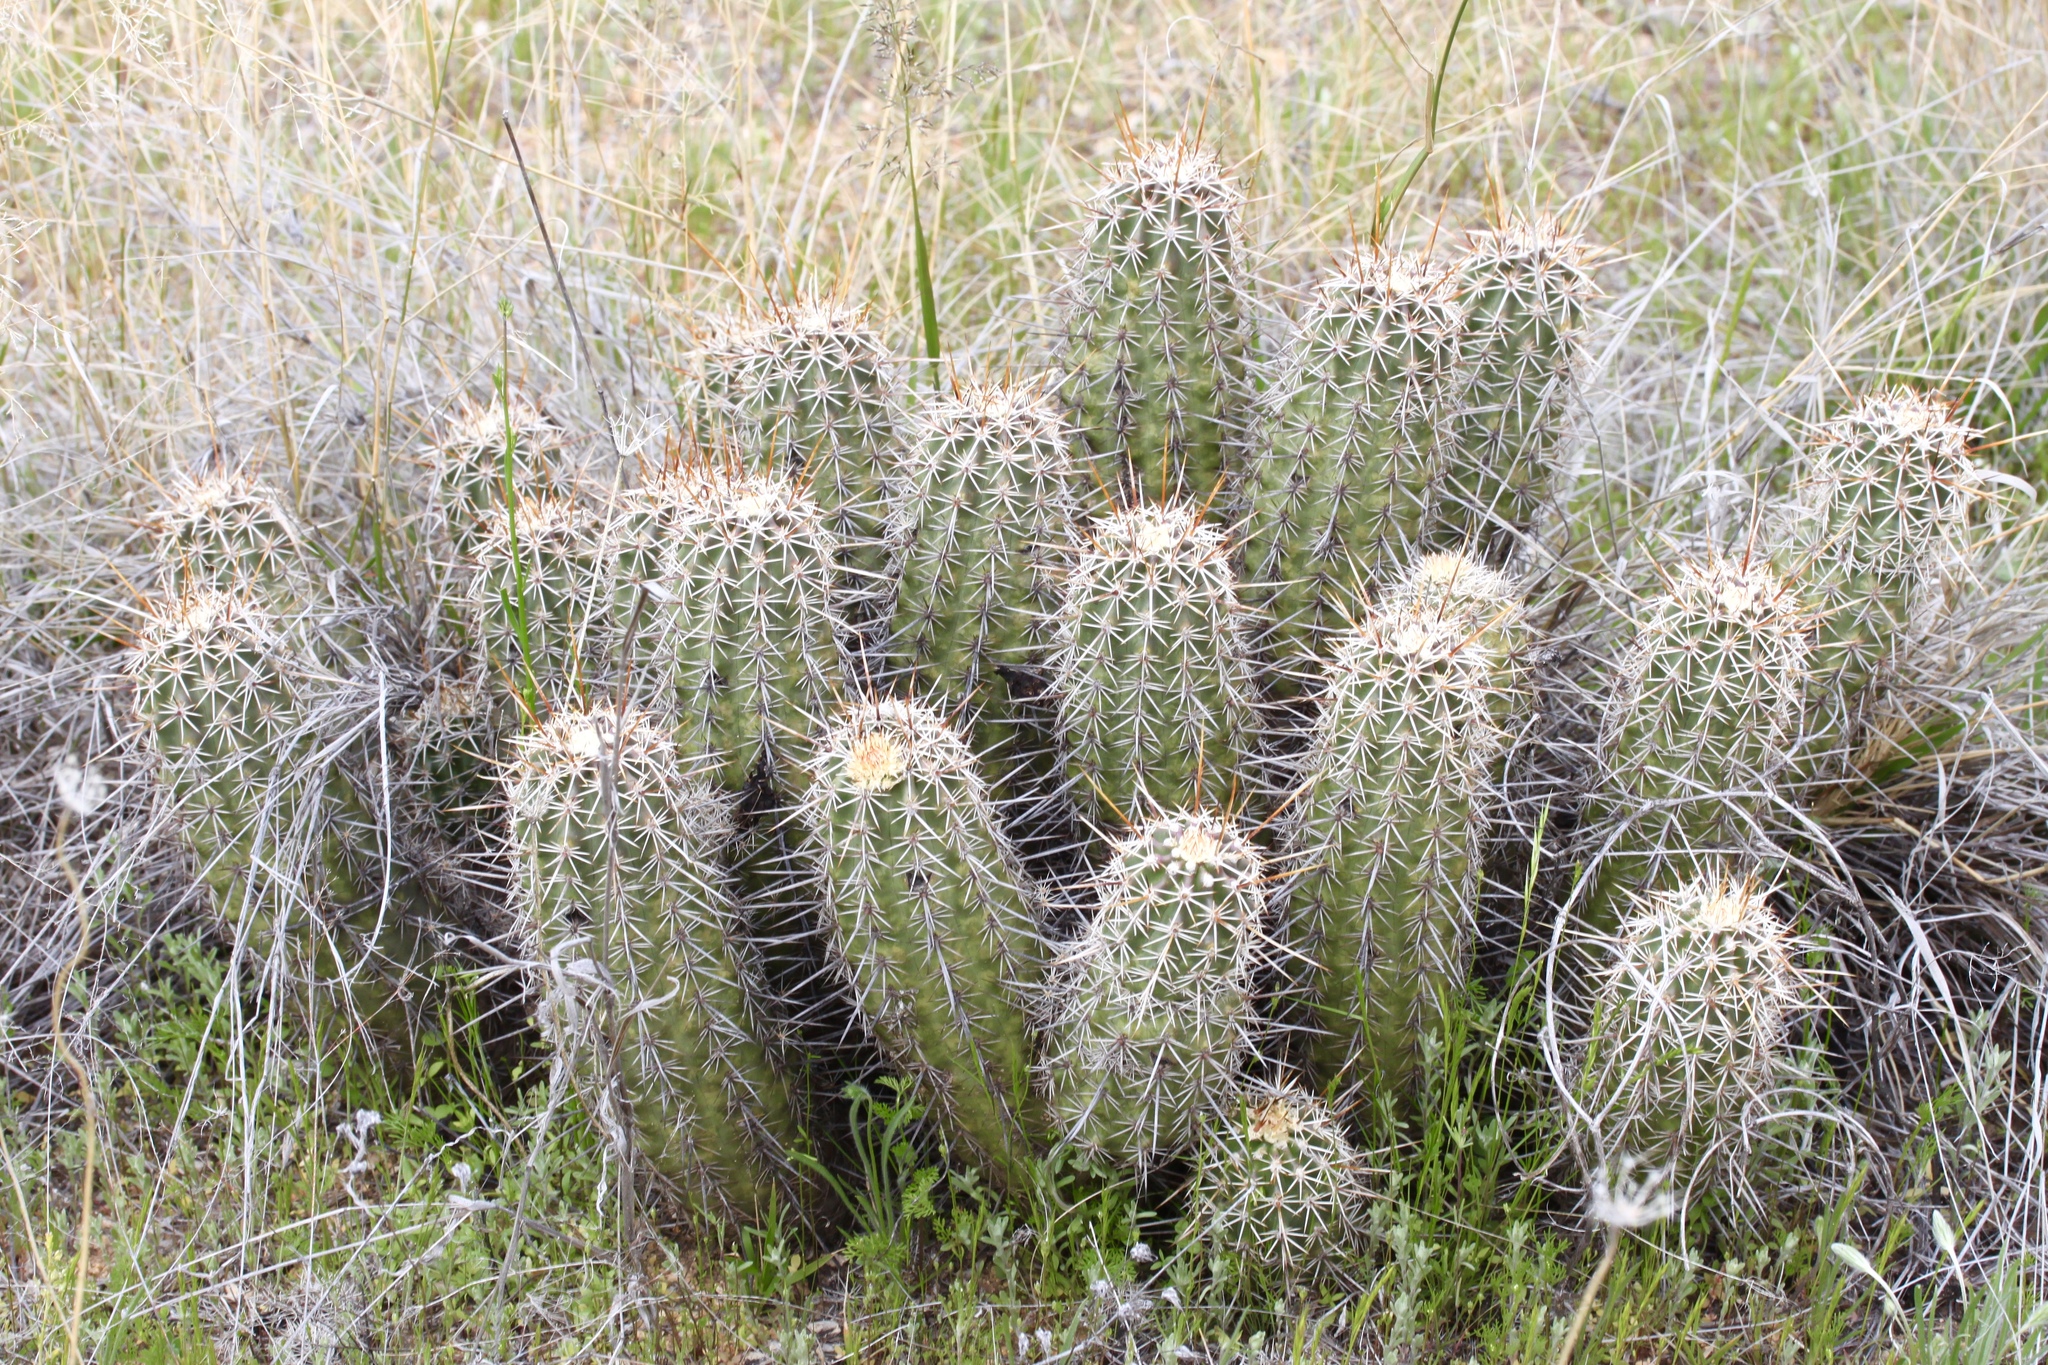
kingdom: Plantae
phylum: Tracheophyta
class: Magnoliopsida
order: Caryophyllales
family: Cactaceae
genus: Echinocereus
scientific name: Echinocereus fasciculatus
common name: Bundle hedgehog
